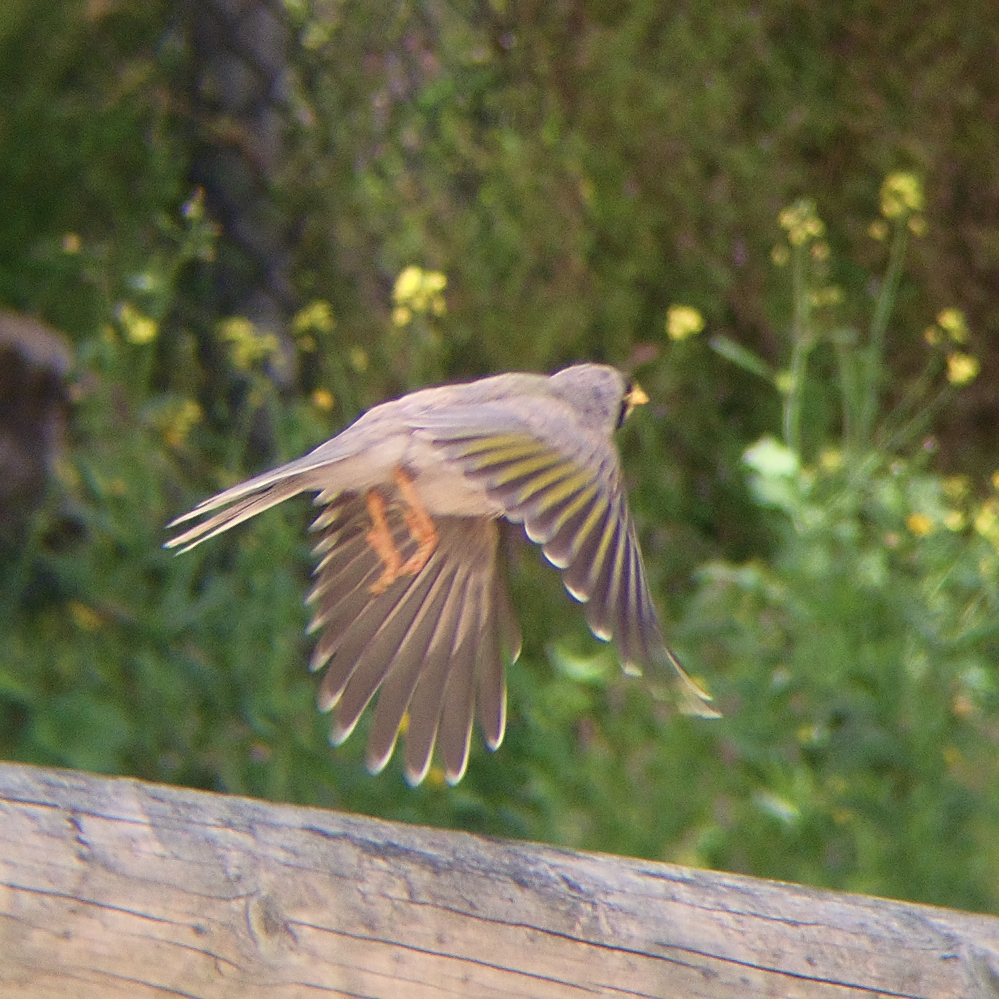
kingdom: Animalia
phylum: Chordata
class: Aves
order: Passeriformes
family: Meliphagidae
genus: Manorina
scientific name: Manorina melanocephala
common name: Noisy miner
